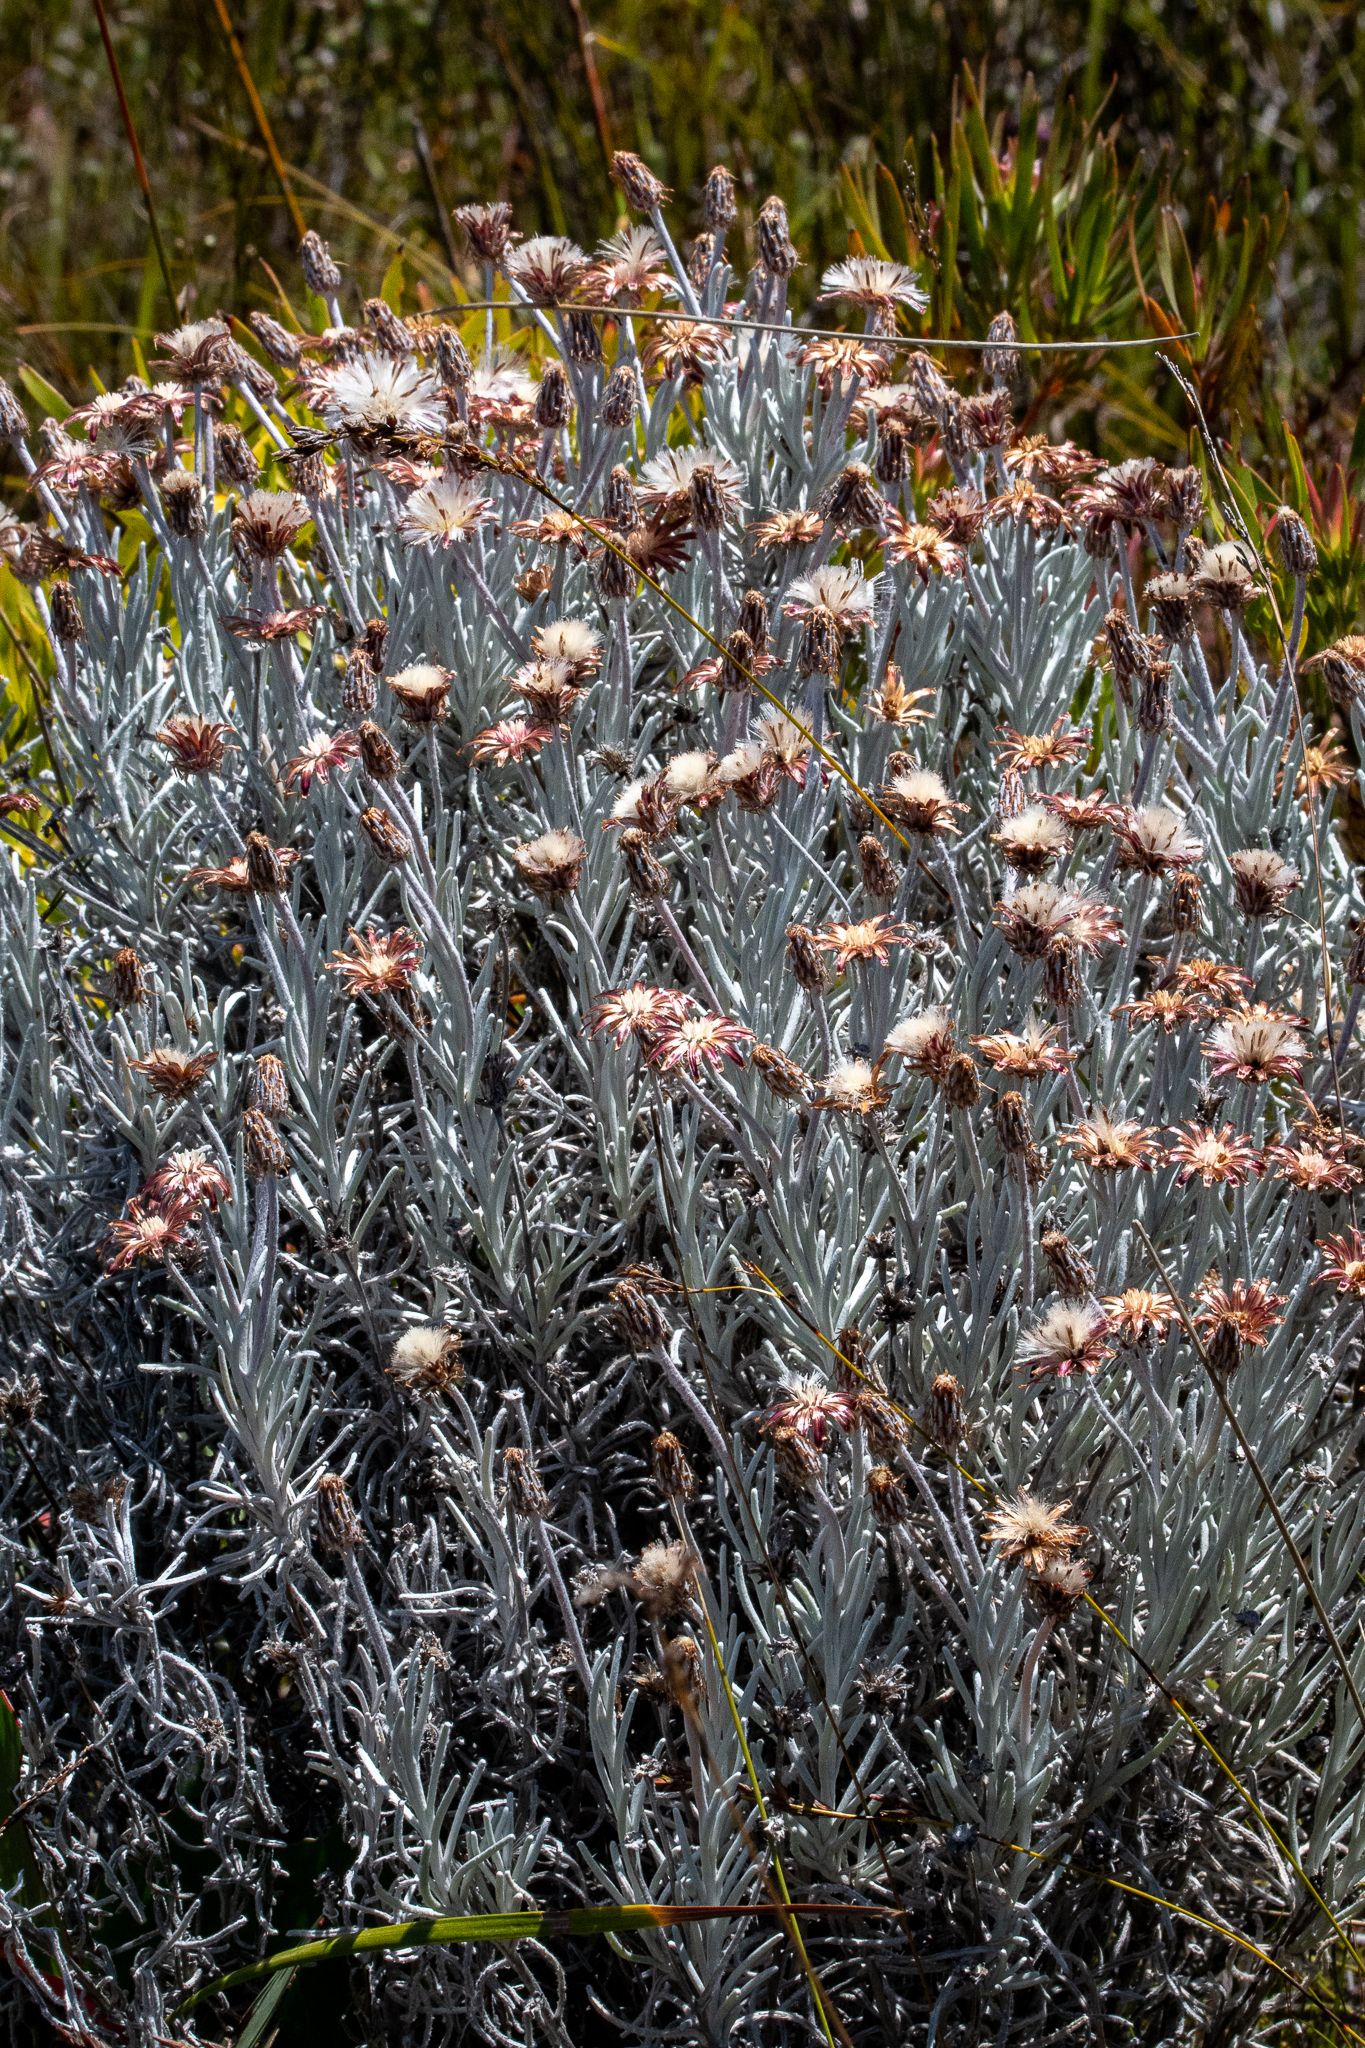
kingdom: Plantae
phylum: Tracheophyta
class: Magnoliopsida
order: Asterales
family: Asteraceae
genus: Syncarpha
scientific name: Syncarpha gnaphaloides
